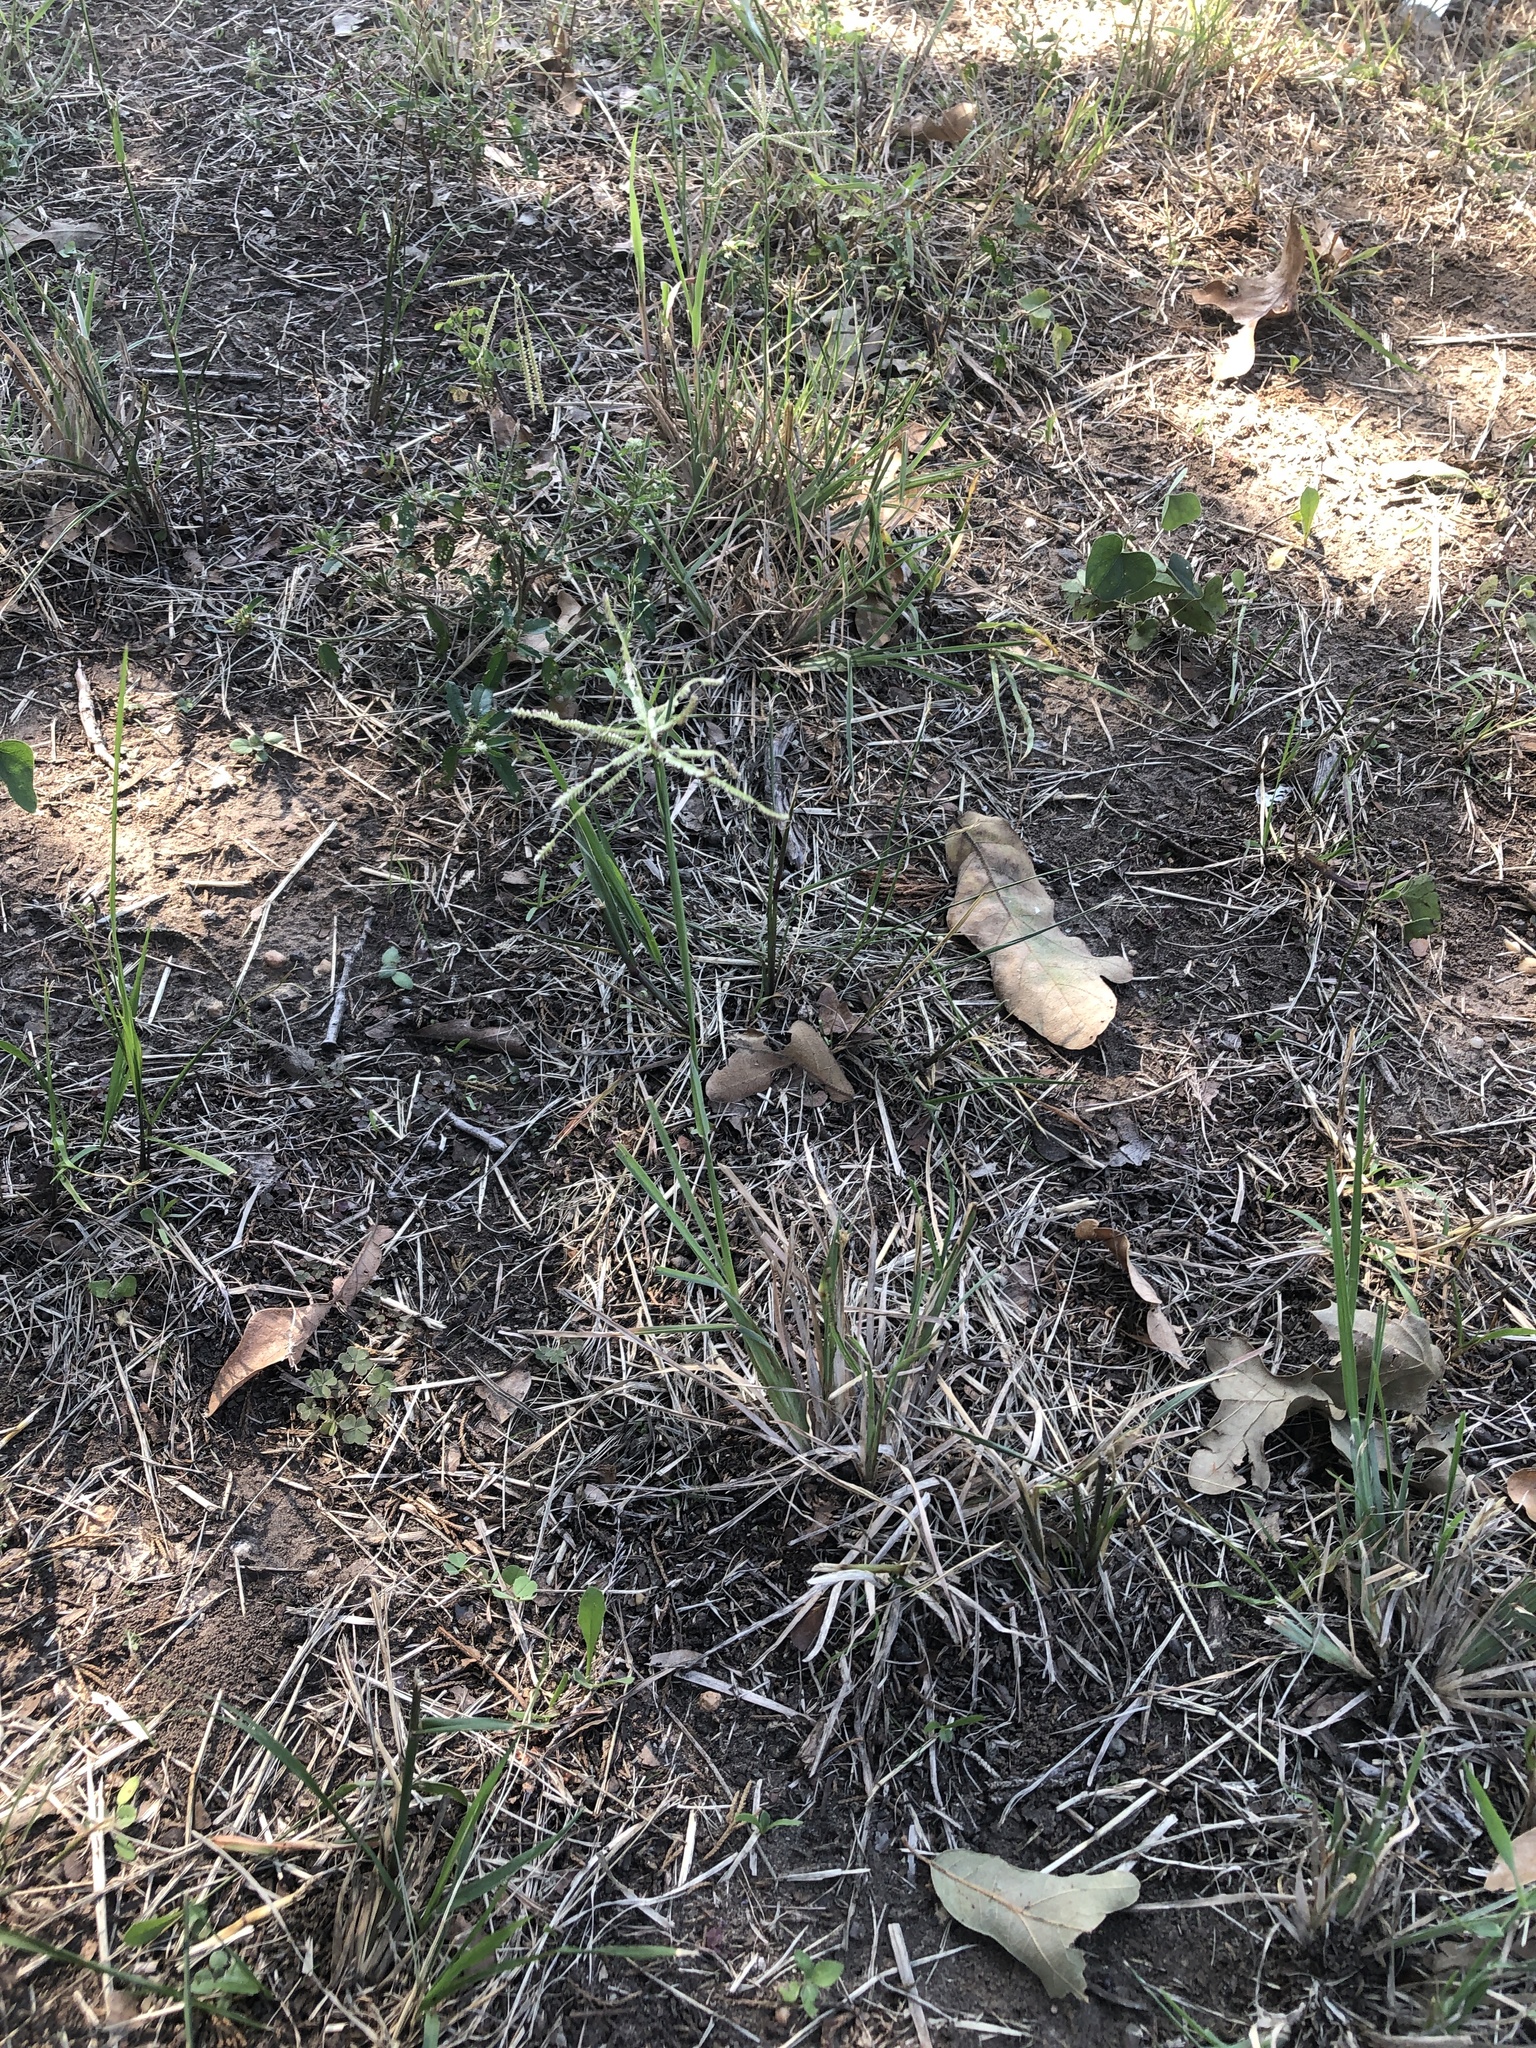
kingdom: Plantae
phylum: Tracheophyta
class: Liliopsida
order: Poales
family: Poaceae
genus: Chloris
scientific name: Chloris cucullata
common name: Hooded windmill grass
